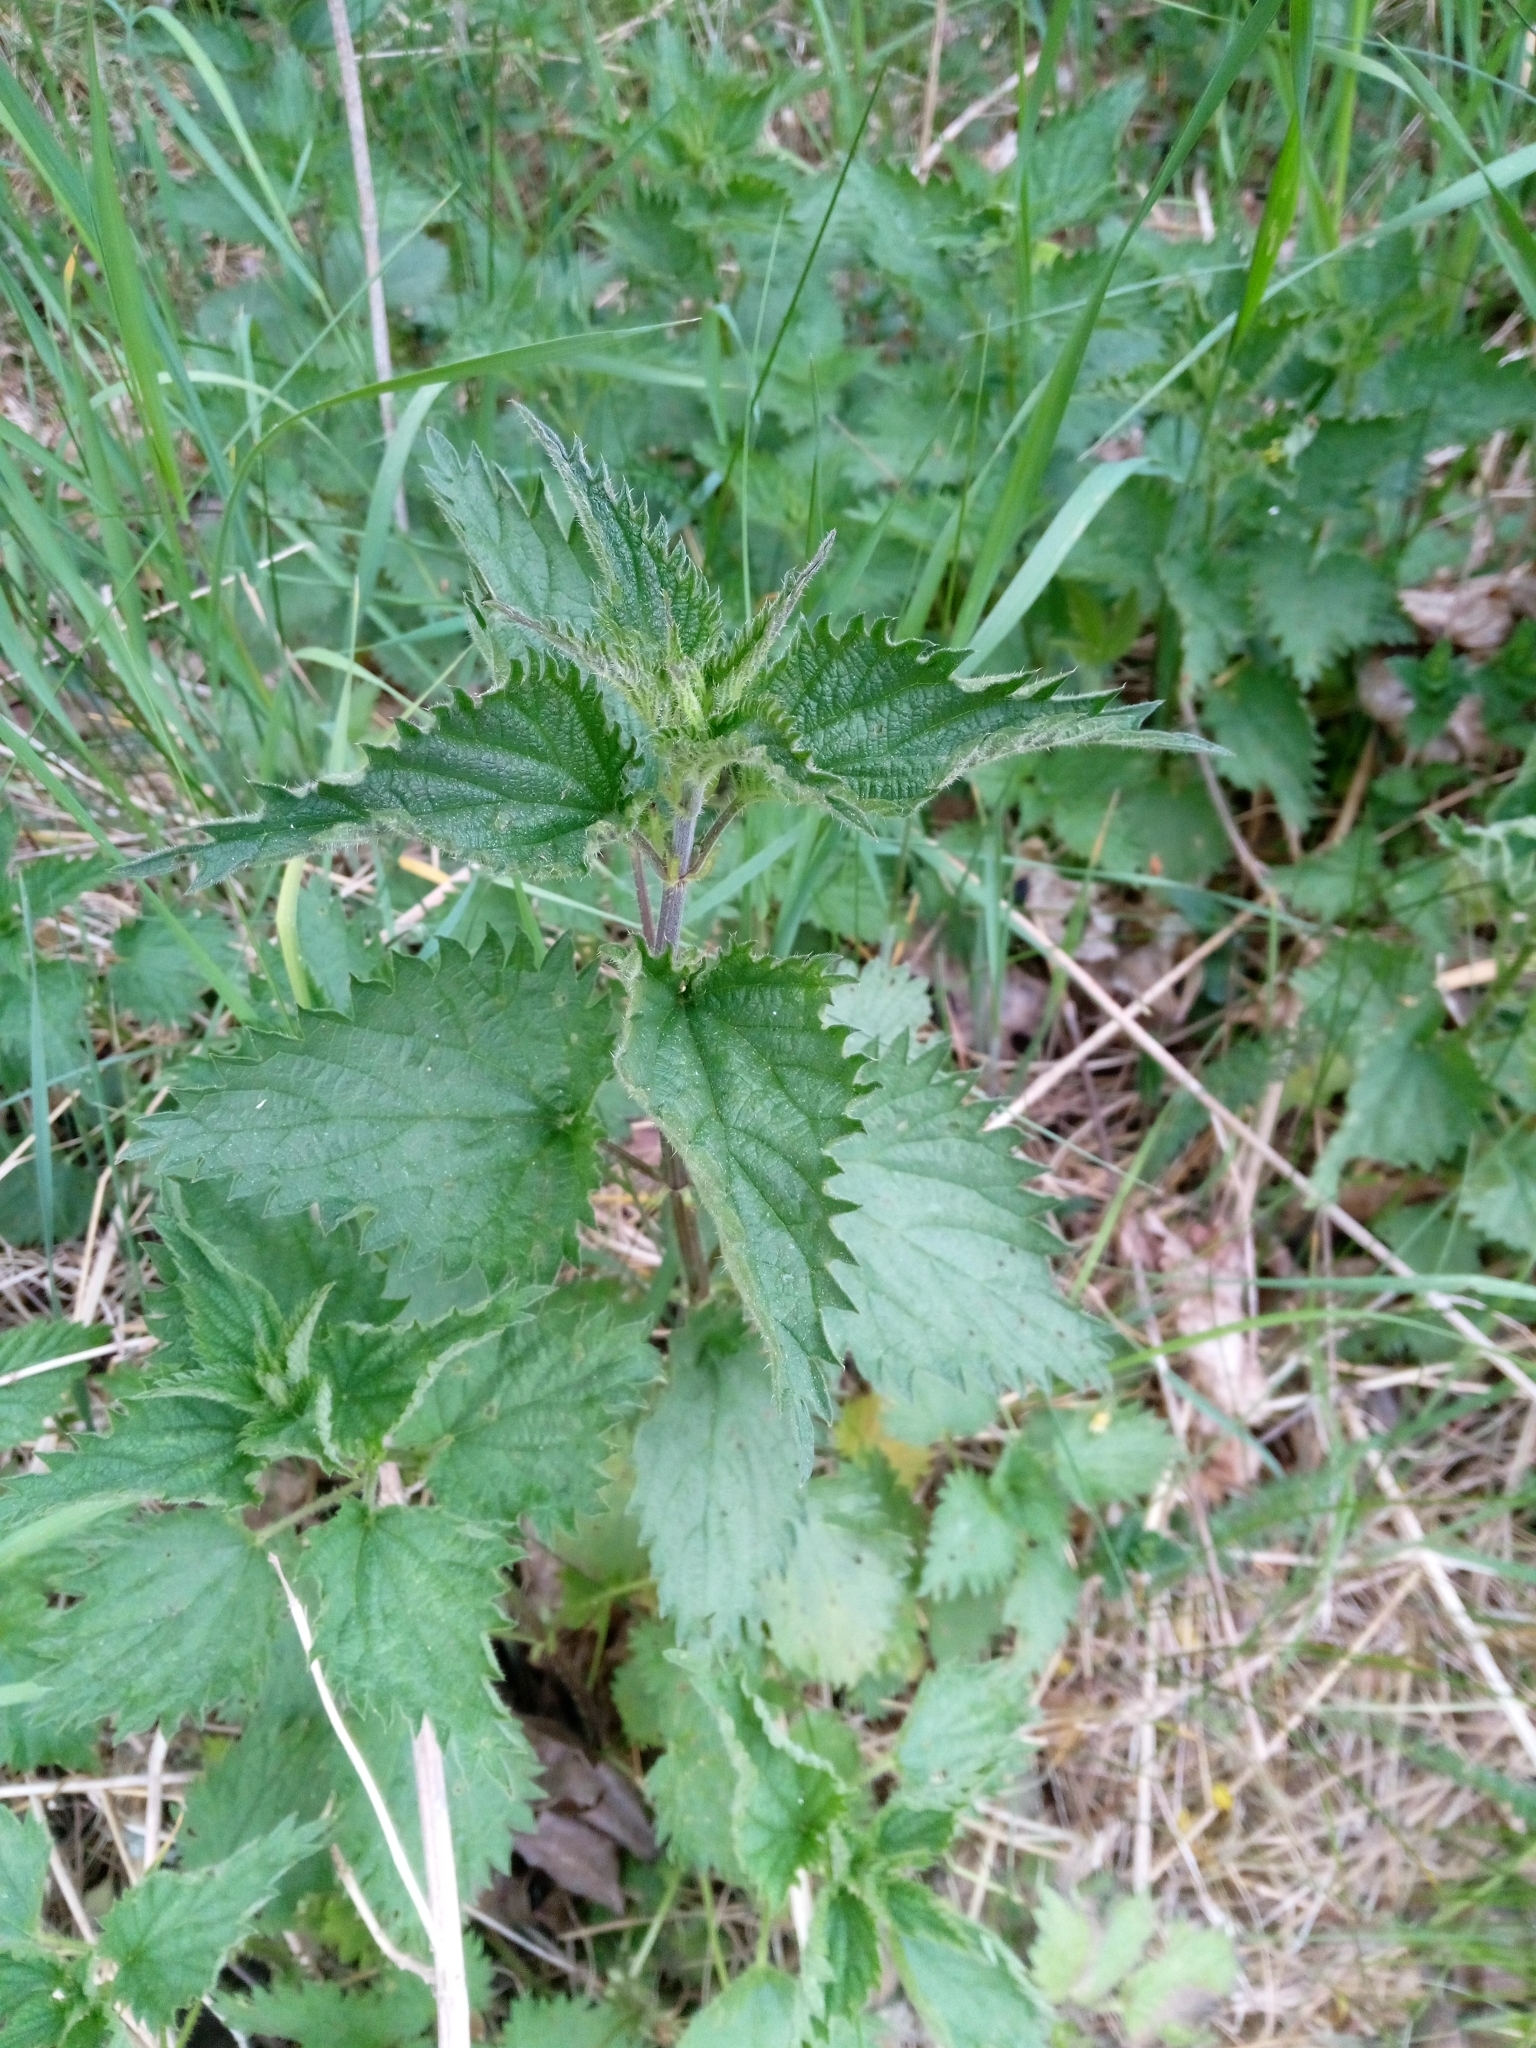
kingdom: Plantae
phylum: Tracheophyta
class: Magnoliopsida
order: Rosales
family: Urticaceae
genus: Urtica
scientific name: Urtica dioica
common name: Common nettle
